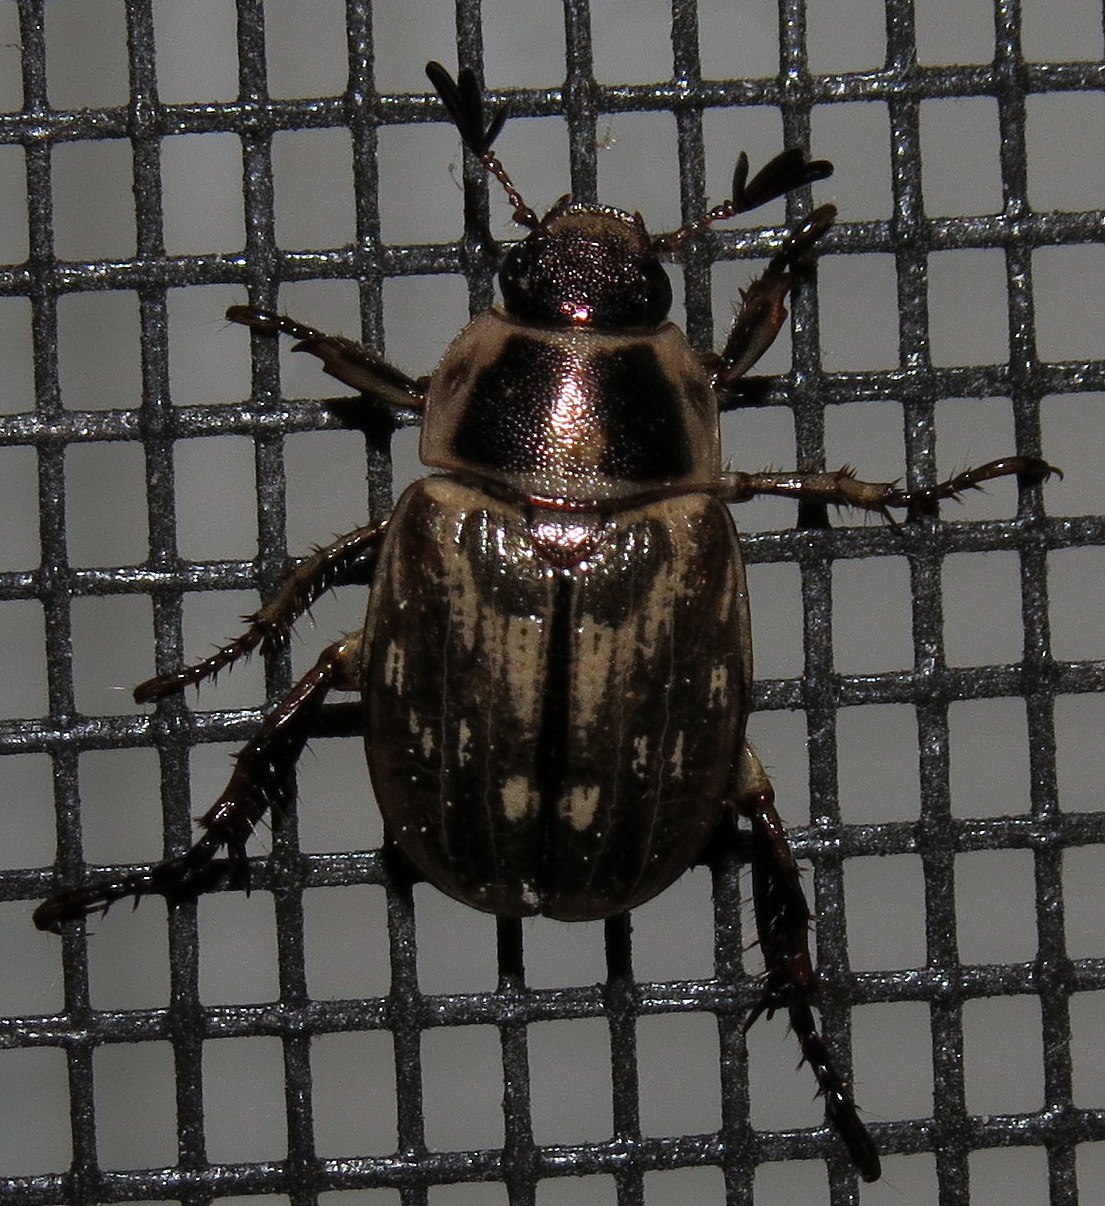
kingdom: Animalia
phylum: Arthropoda
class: Insecta
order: Coleoptera
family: Scarabaeidae
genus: Exomala
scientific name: Exomala orientalis
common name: Oriental beetle
